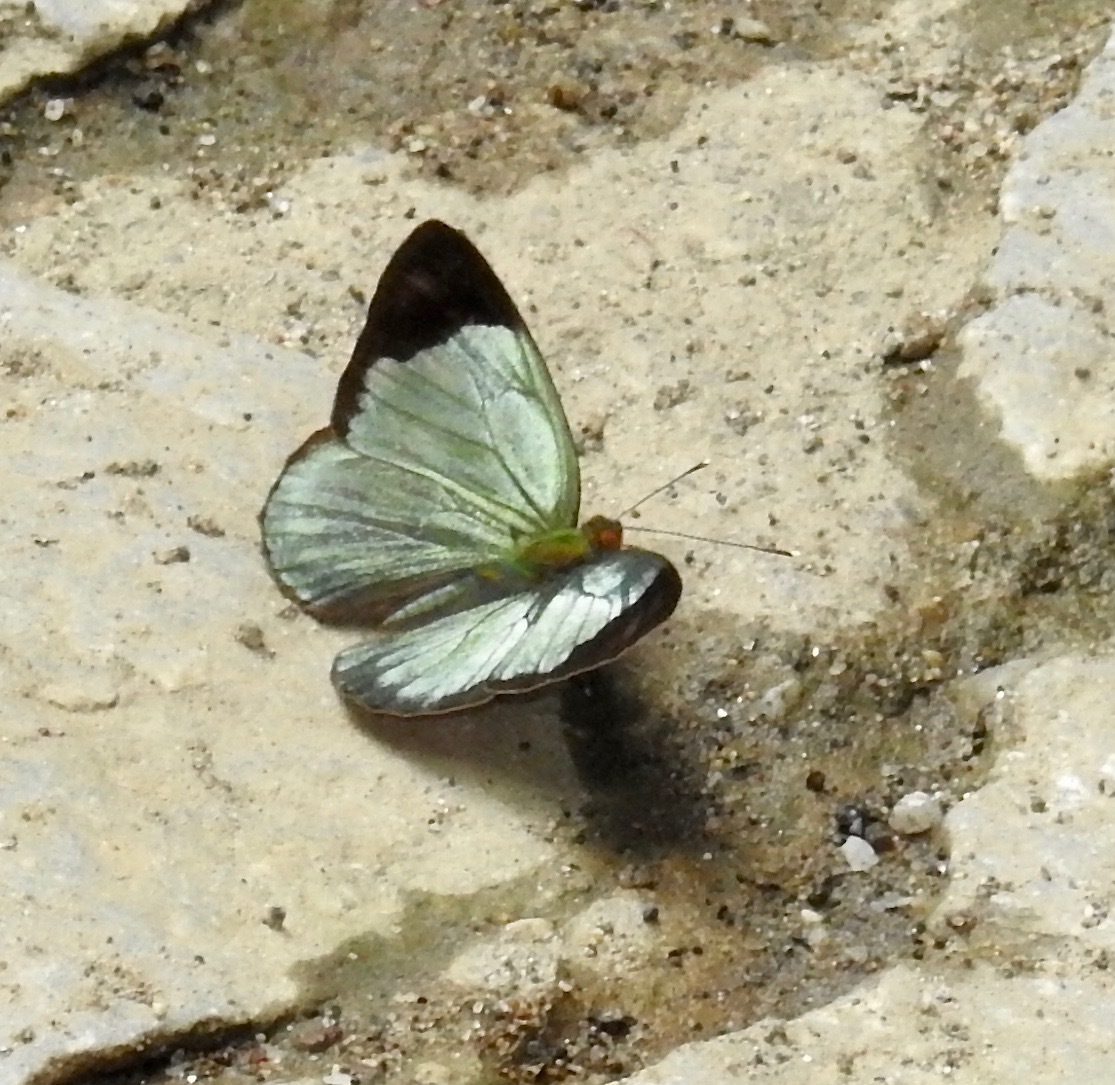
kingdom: Animalia
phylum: Arthropoda
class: Insecta
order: Lepidoptera
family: Nymphalidae
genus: Dynamine
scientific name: Dynamine chryseis
